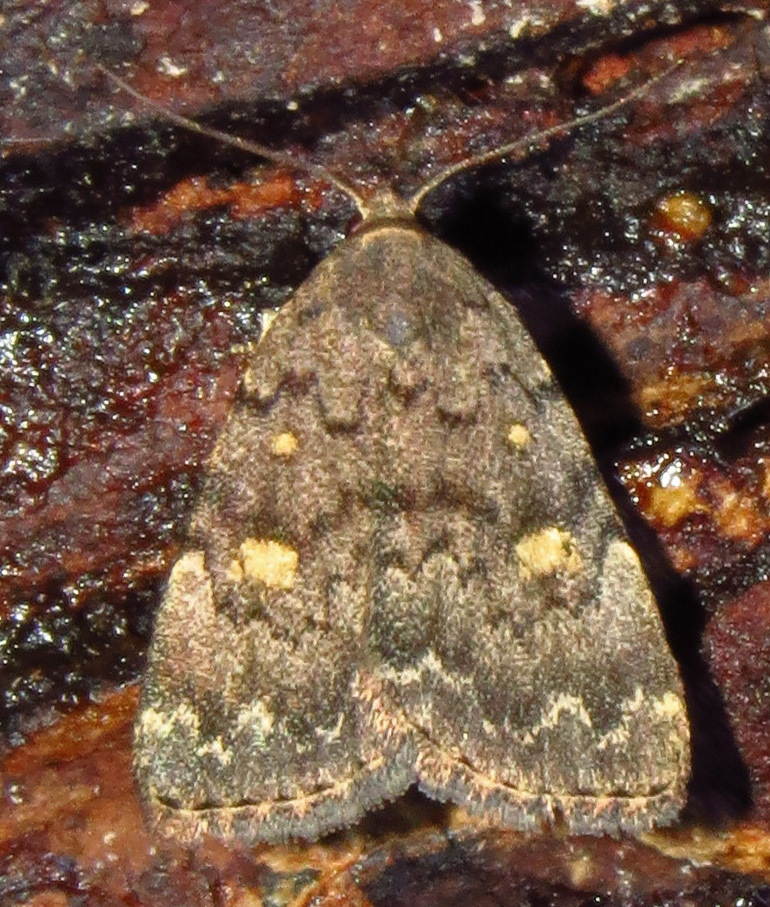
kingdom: Animalia
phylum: Arthropoda
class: Insecta
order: Lepidoptera
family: Erebidae
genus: Idia
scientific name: Idia aemula
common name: Common idia moth
